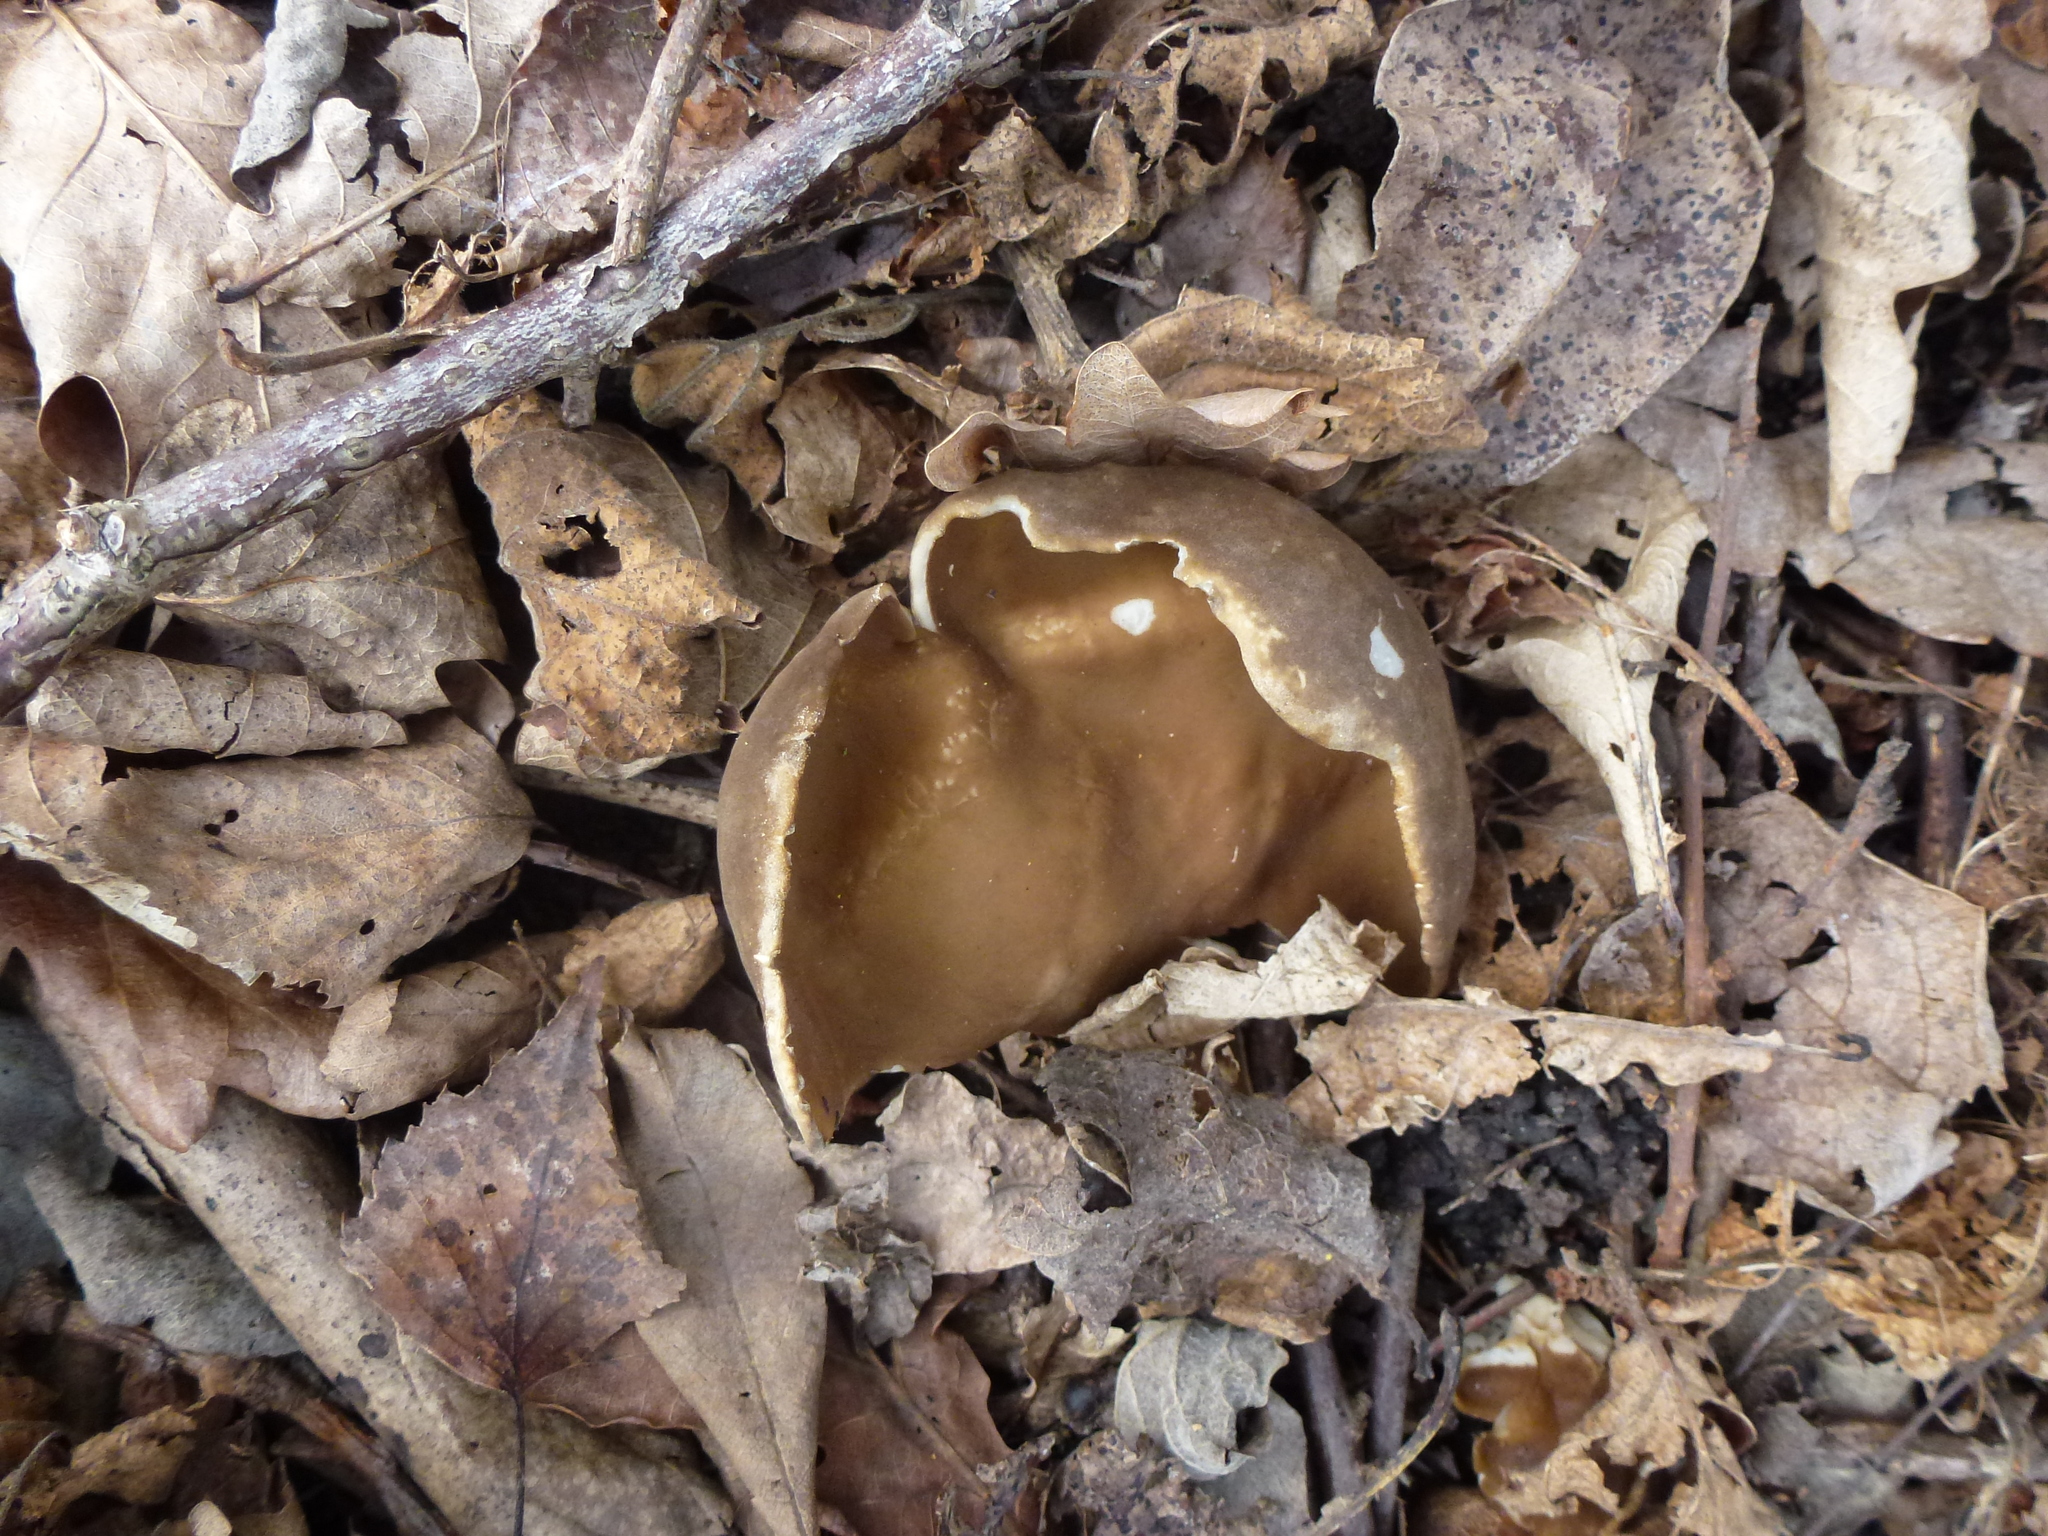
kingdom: Fungi
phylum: Ascomycota
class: Pezizomycetes
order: Pezizales
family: Morchellaceae
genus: Disciotis
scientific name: Disciotis venosa
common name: Bleach cup
